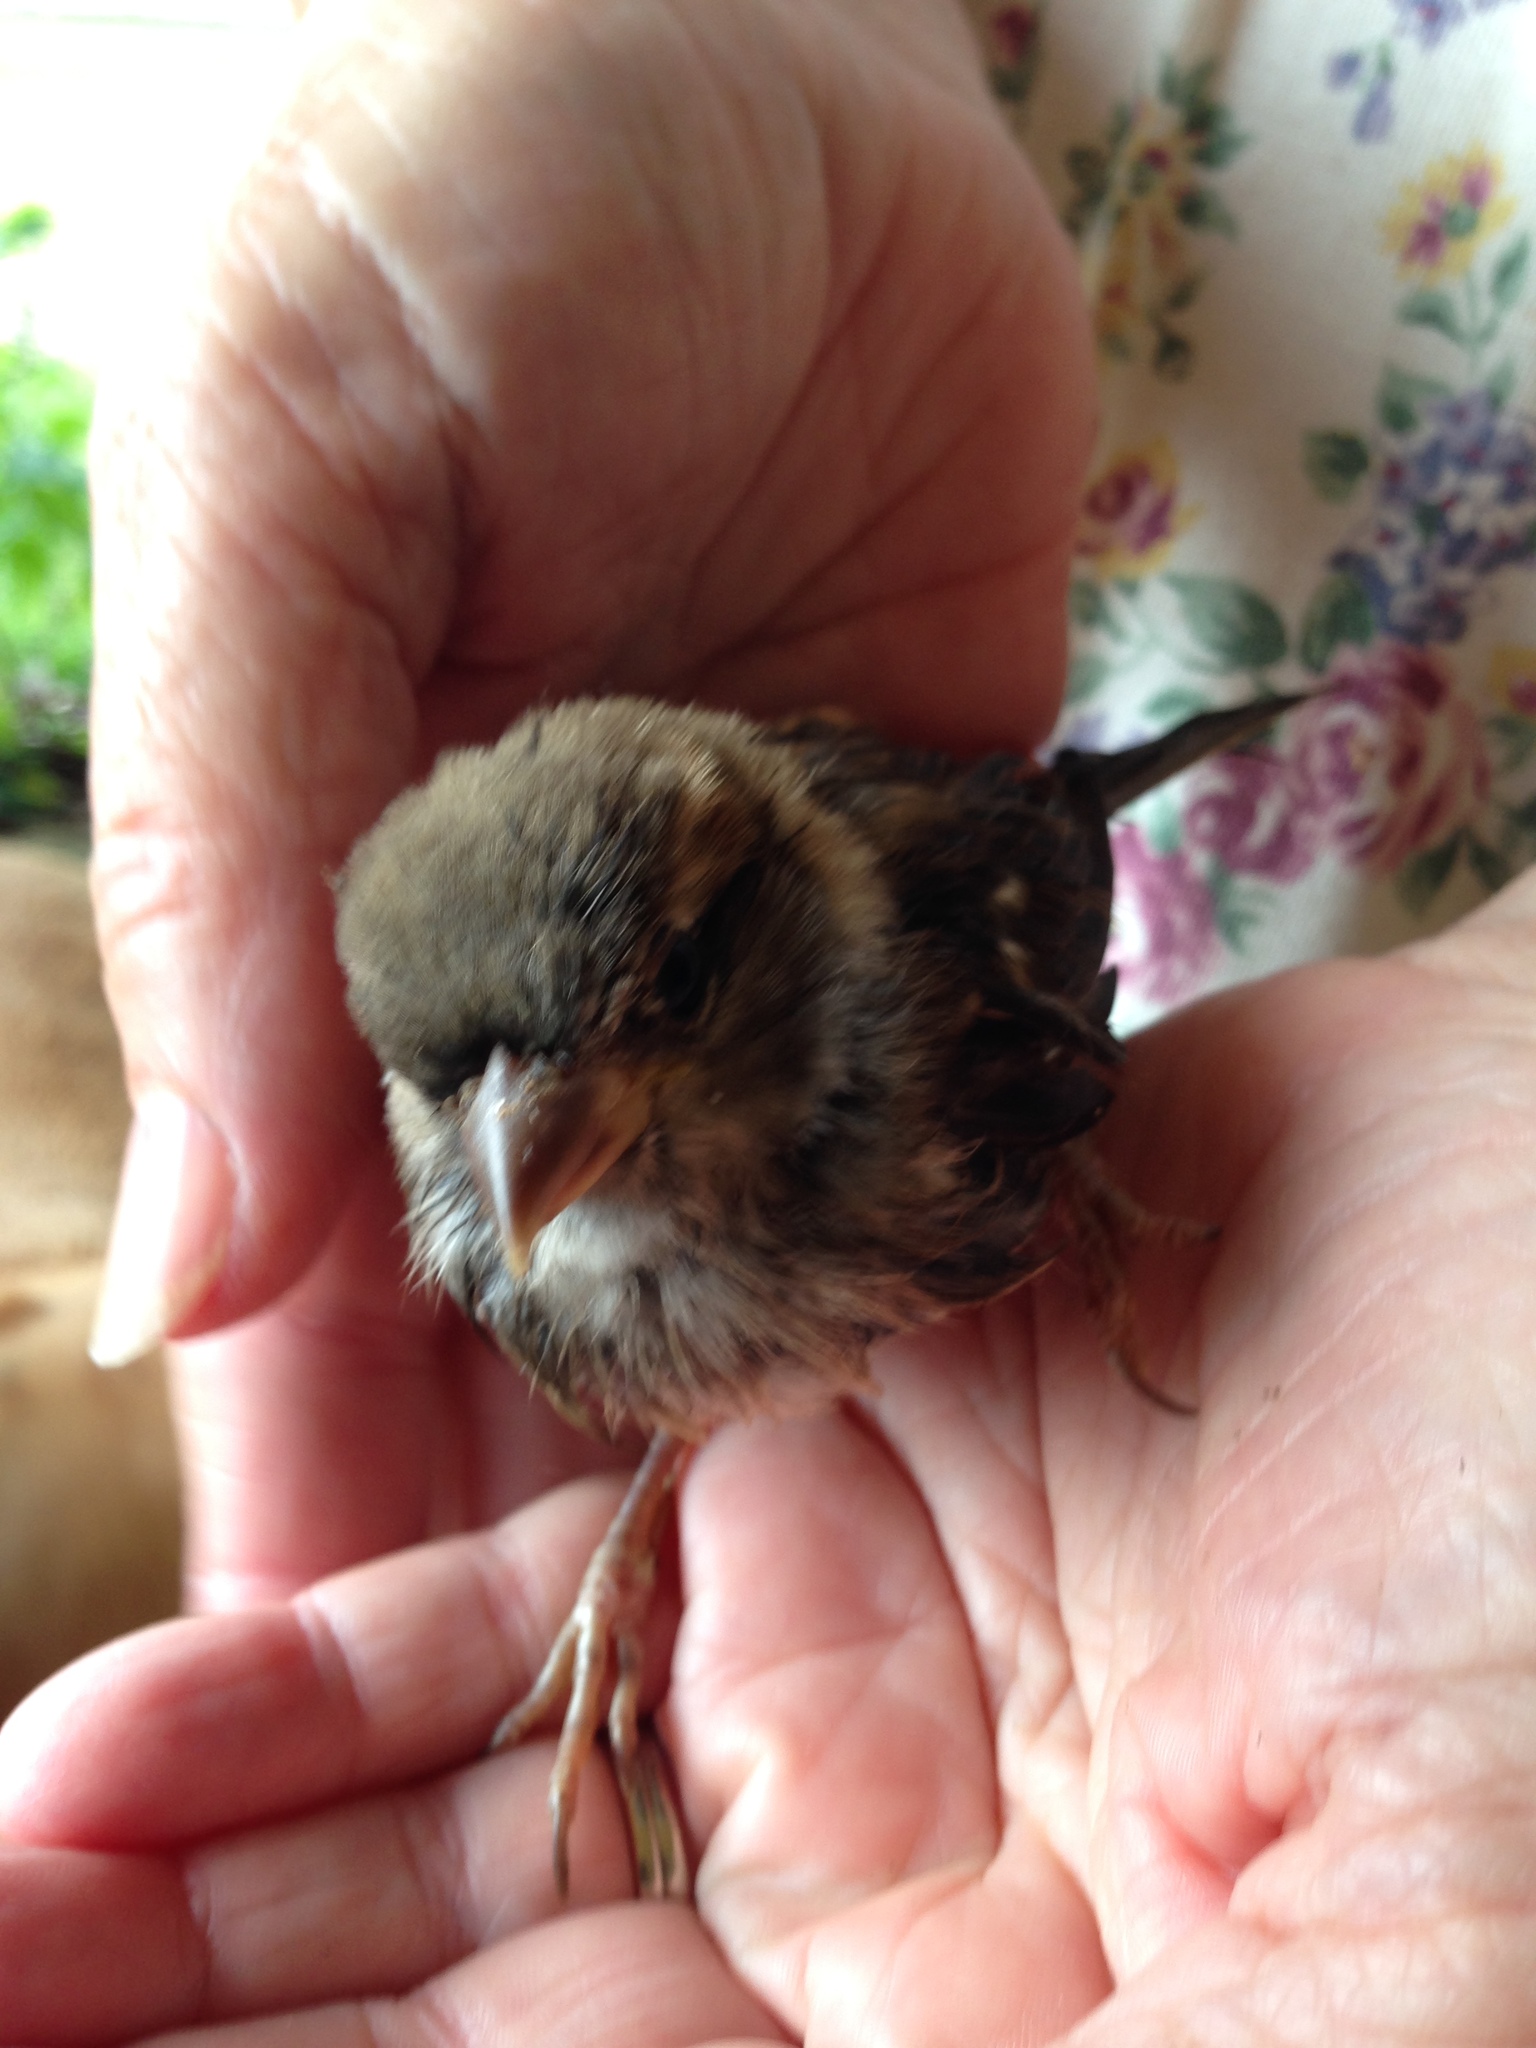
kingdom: Animalia
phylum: Chordata
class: Aves
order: Passeriformes
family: Passeridae
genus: Passer
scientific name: Passer domesticus
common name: House sparrow
